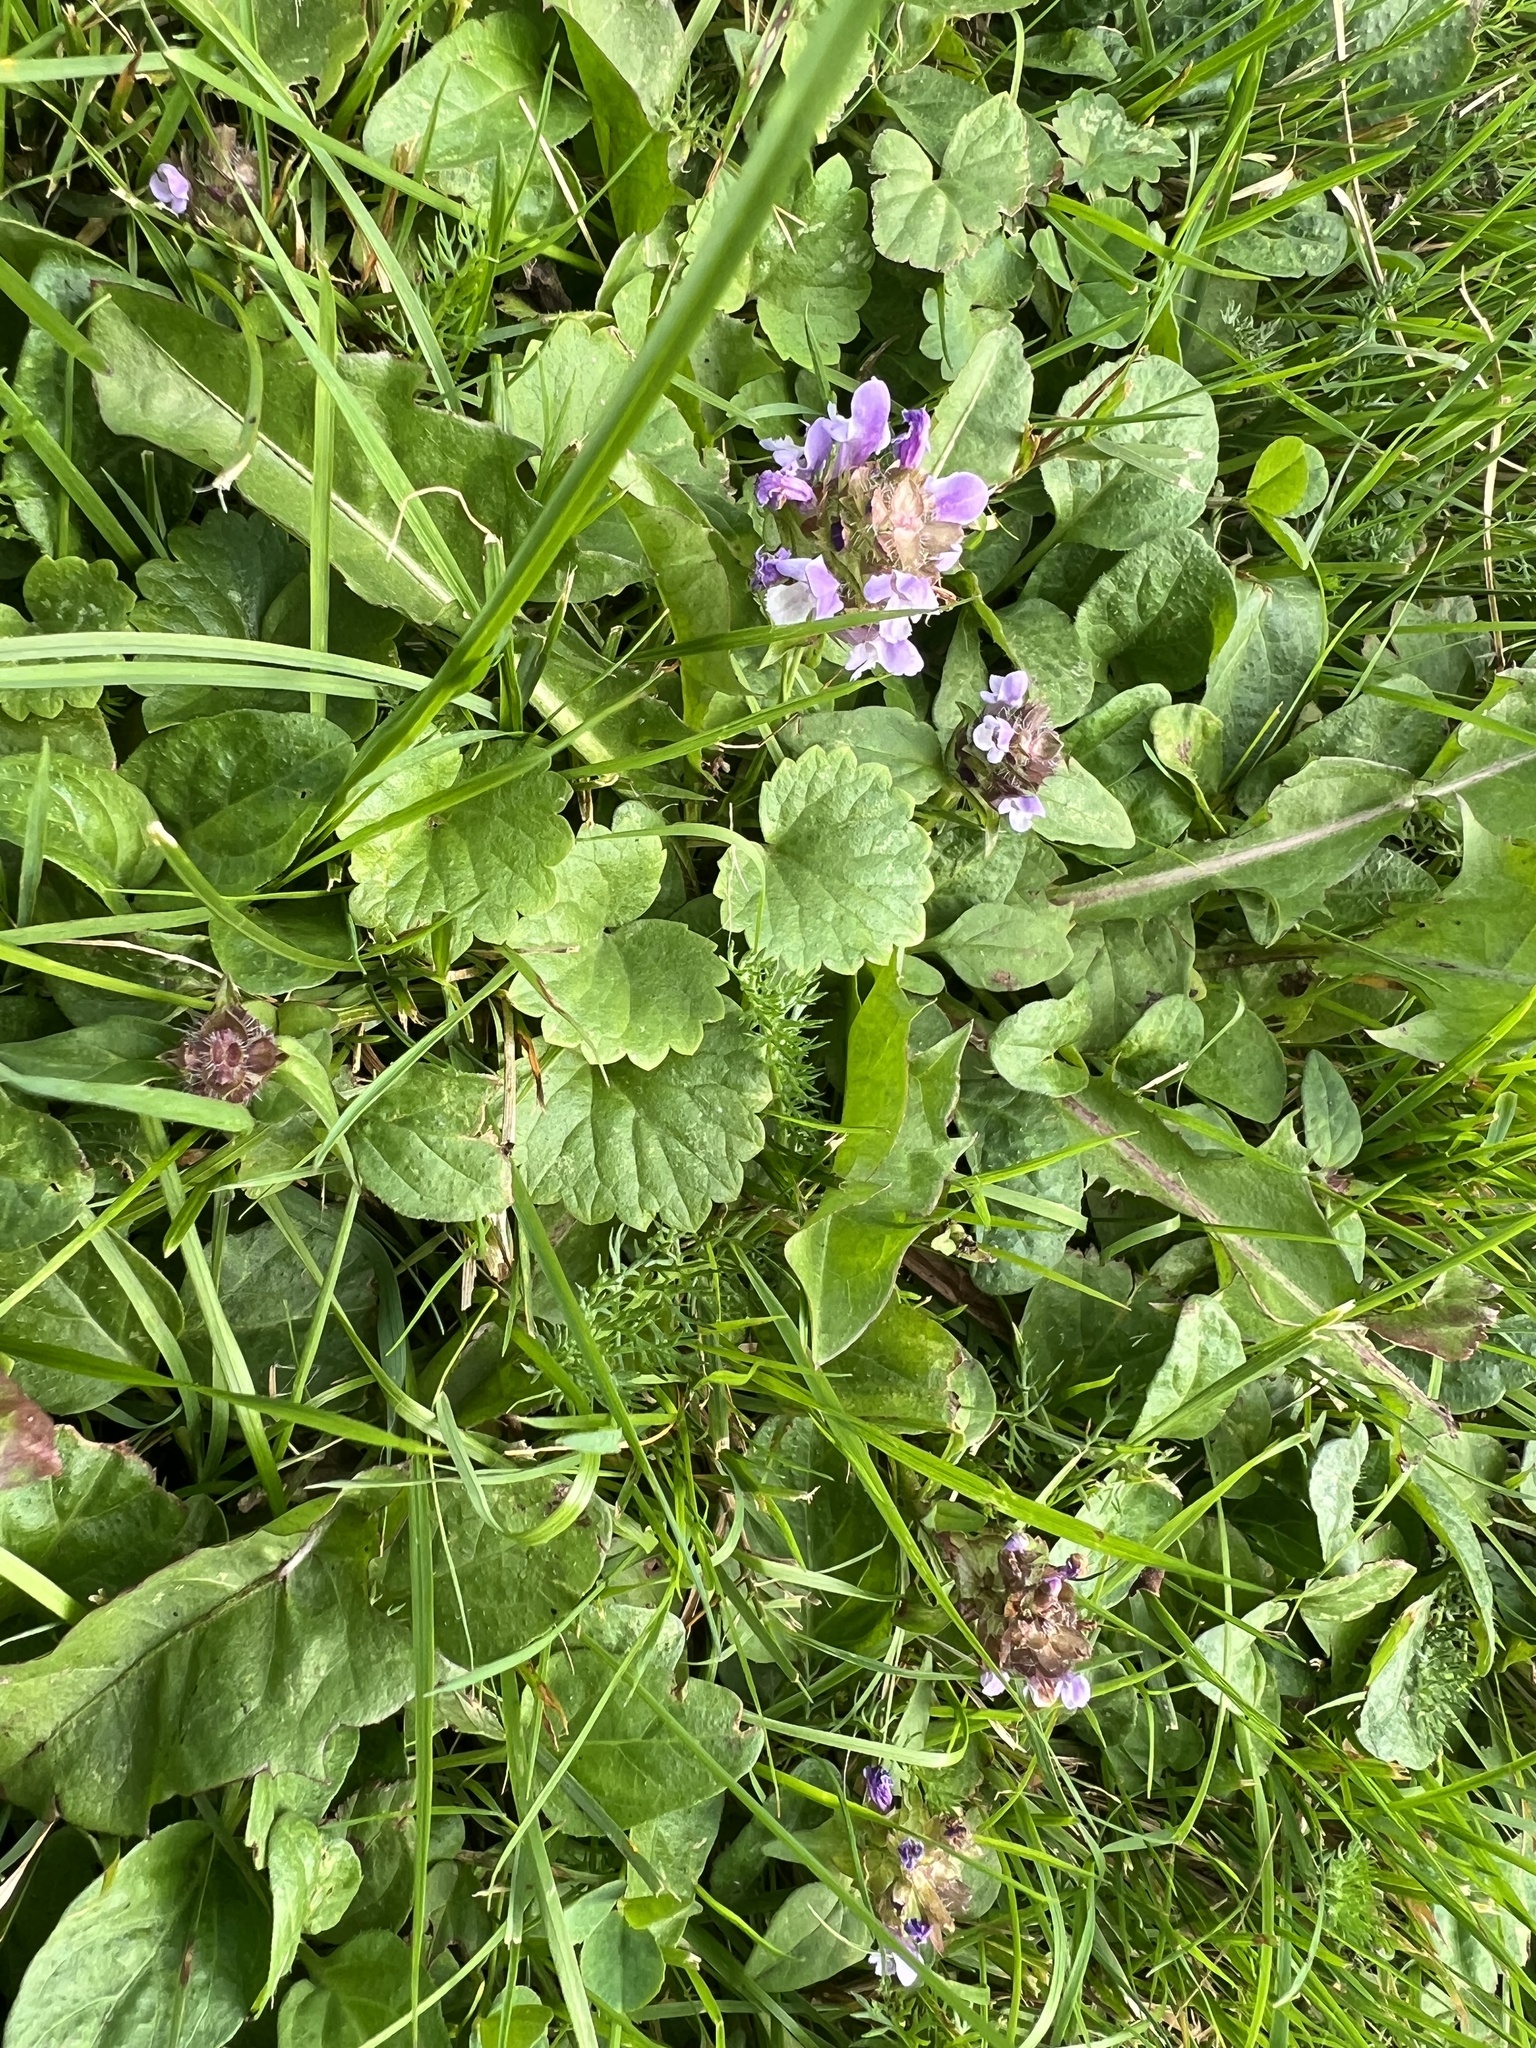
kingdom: Plantae
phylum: Tracheophyta
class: Magnoliopsida
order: Lamiales
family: Lamiaceae
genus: Glechoma
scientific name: Glechoma hederacea
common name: Ground ivy
